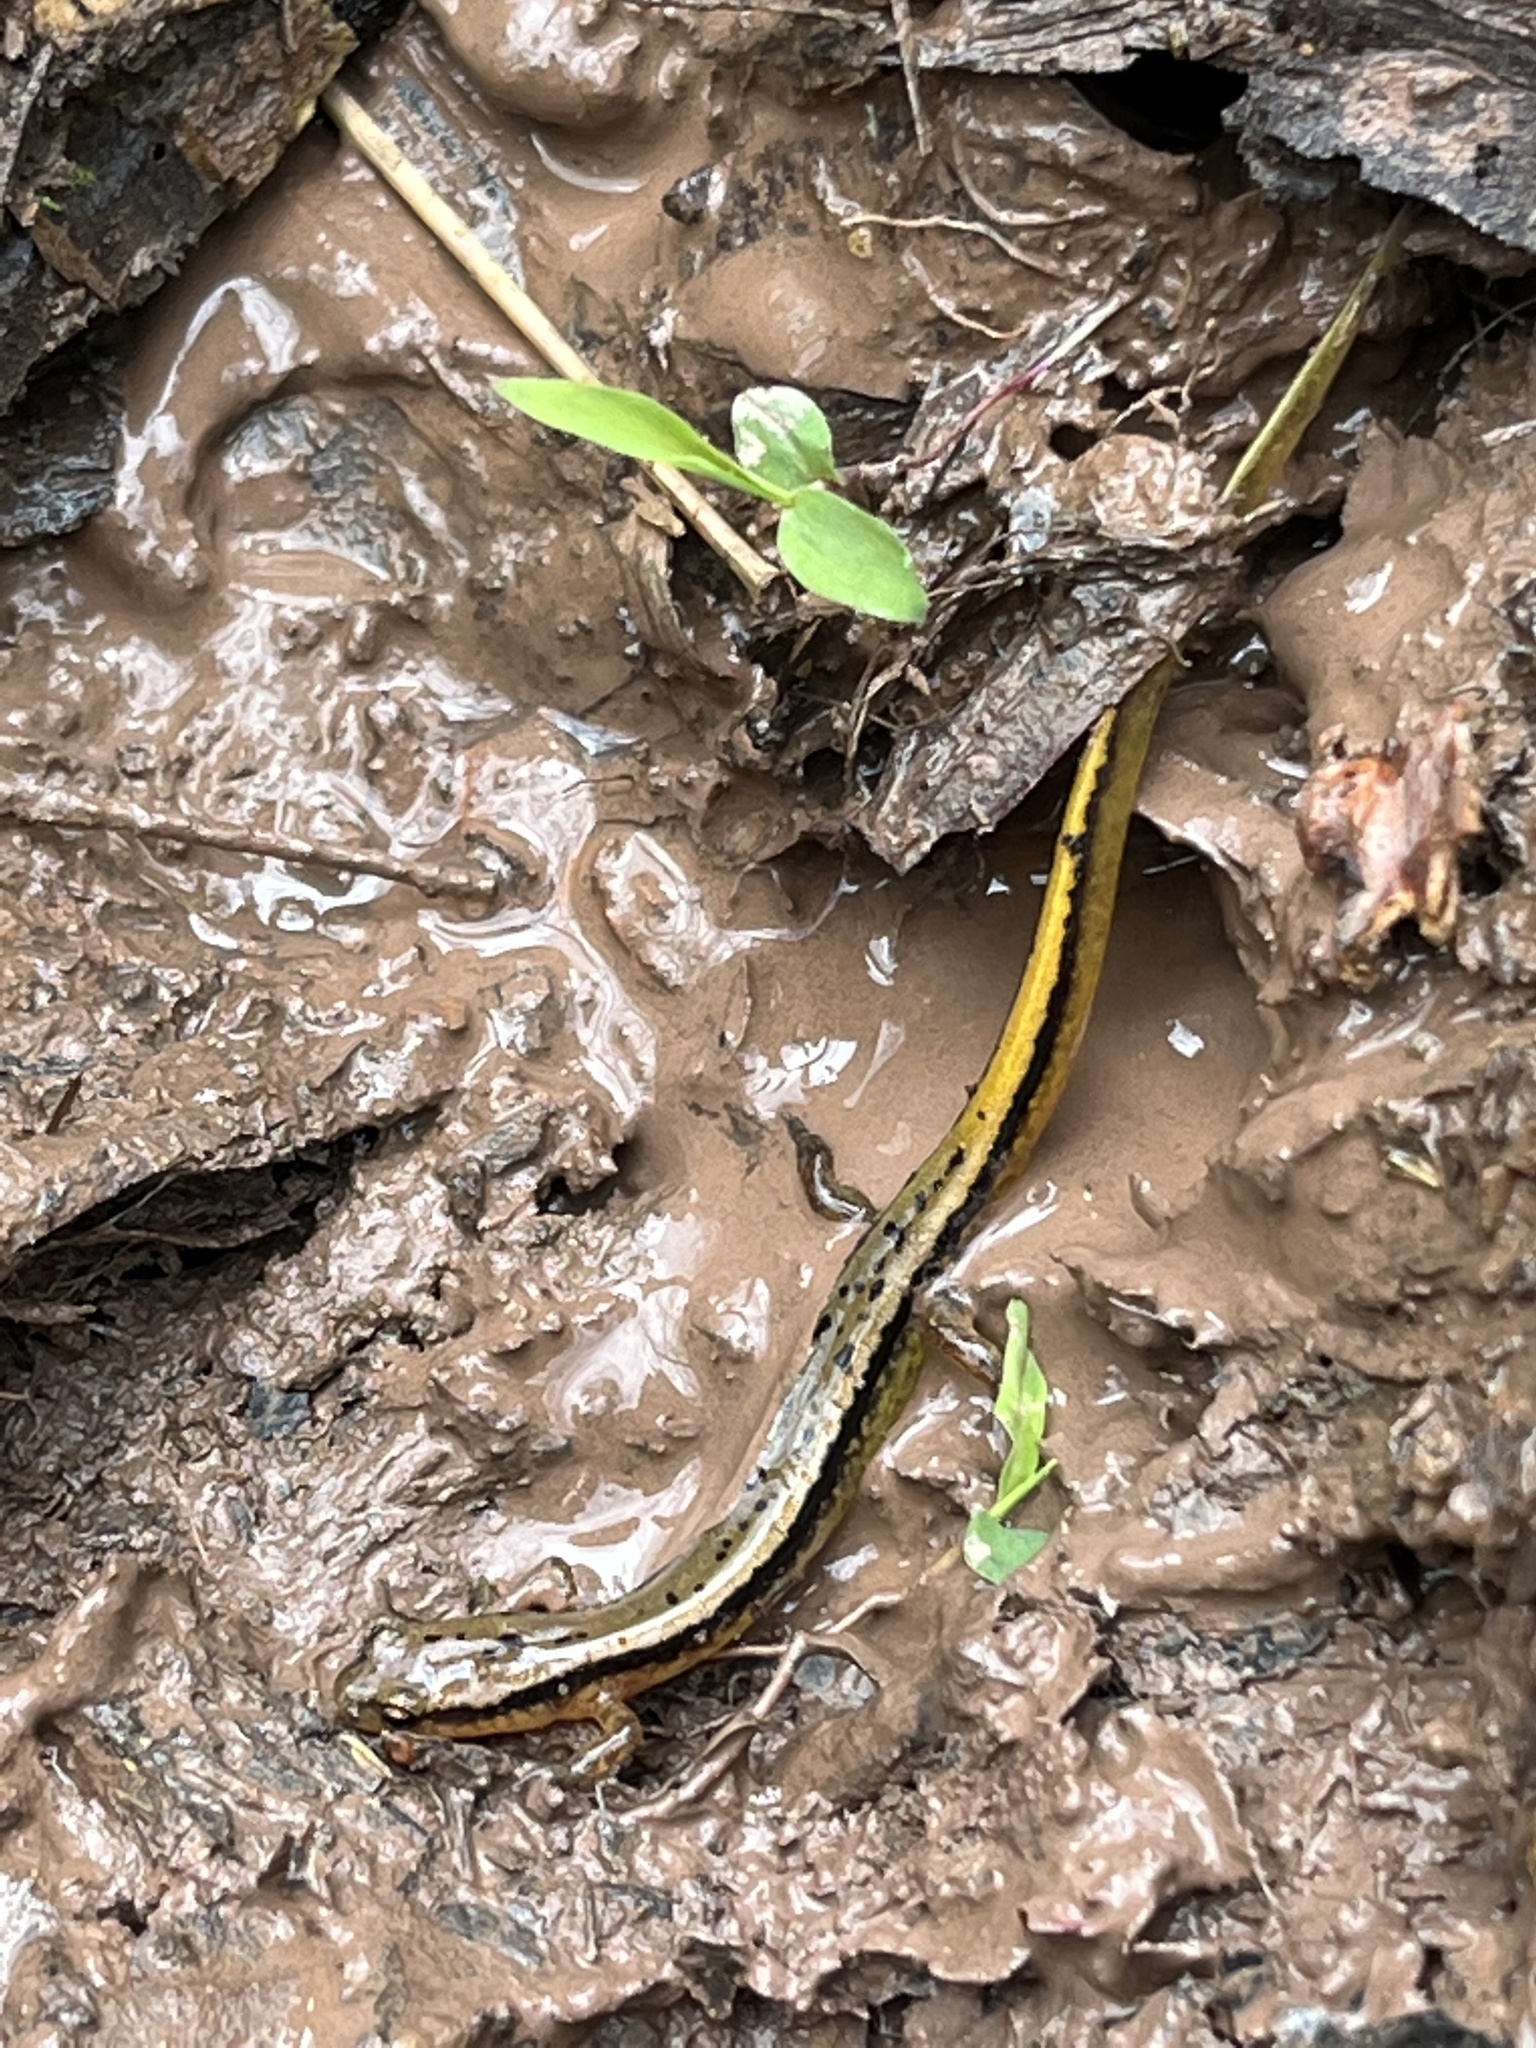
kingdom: Animalia
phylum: Chordata
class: Amphibia
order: Caudata
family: Plethodontidae
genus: Eurycea
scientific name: Eurycea bislineata
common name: Northern two-lined salamander
